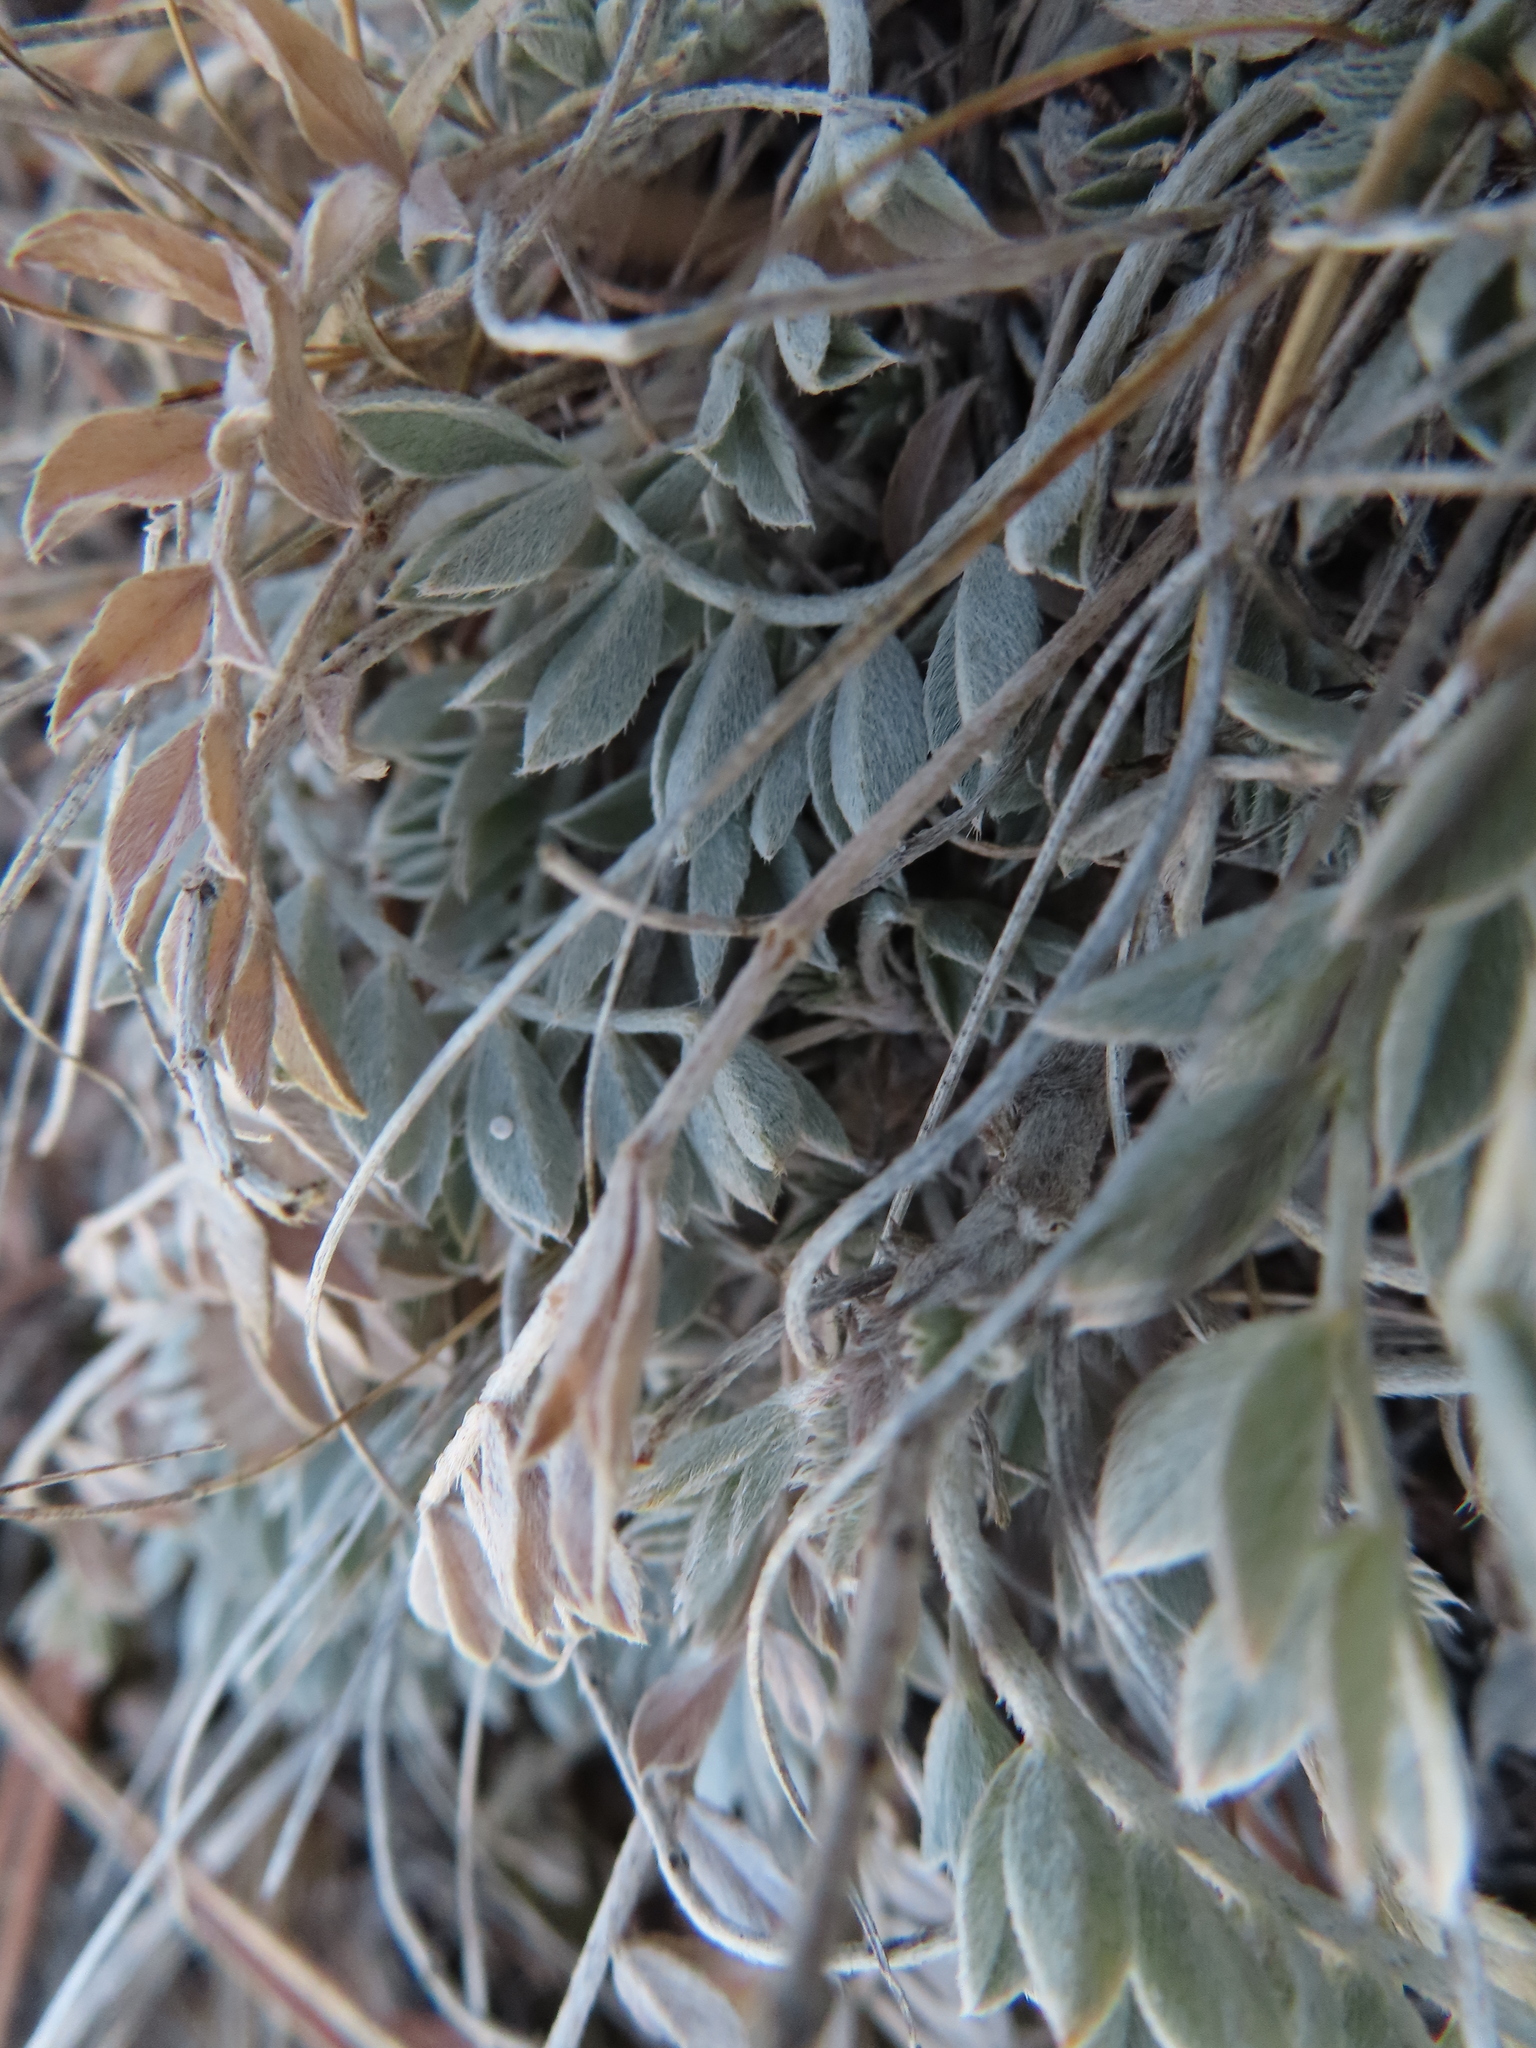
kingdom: Plantae
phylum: Tracheophyta
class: Magnoliopsida
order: Fabales
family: Fabaceae
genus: Astragalus
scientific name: Astragalus missouriensis
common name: Missouri milk-vetch
